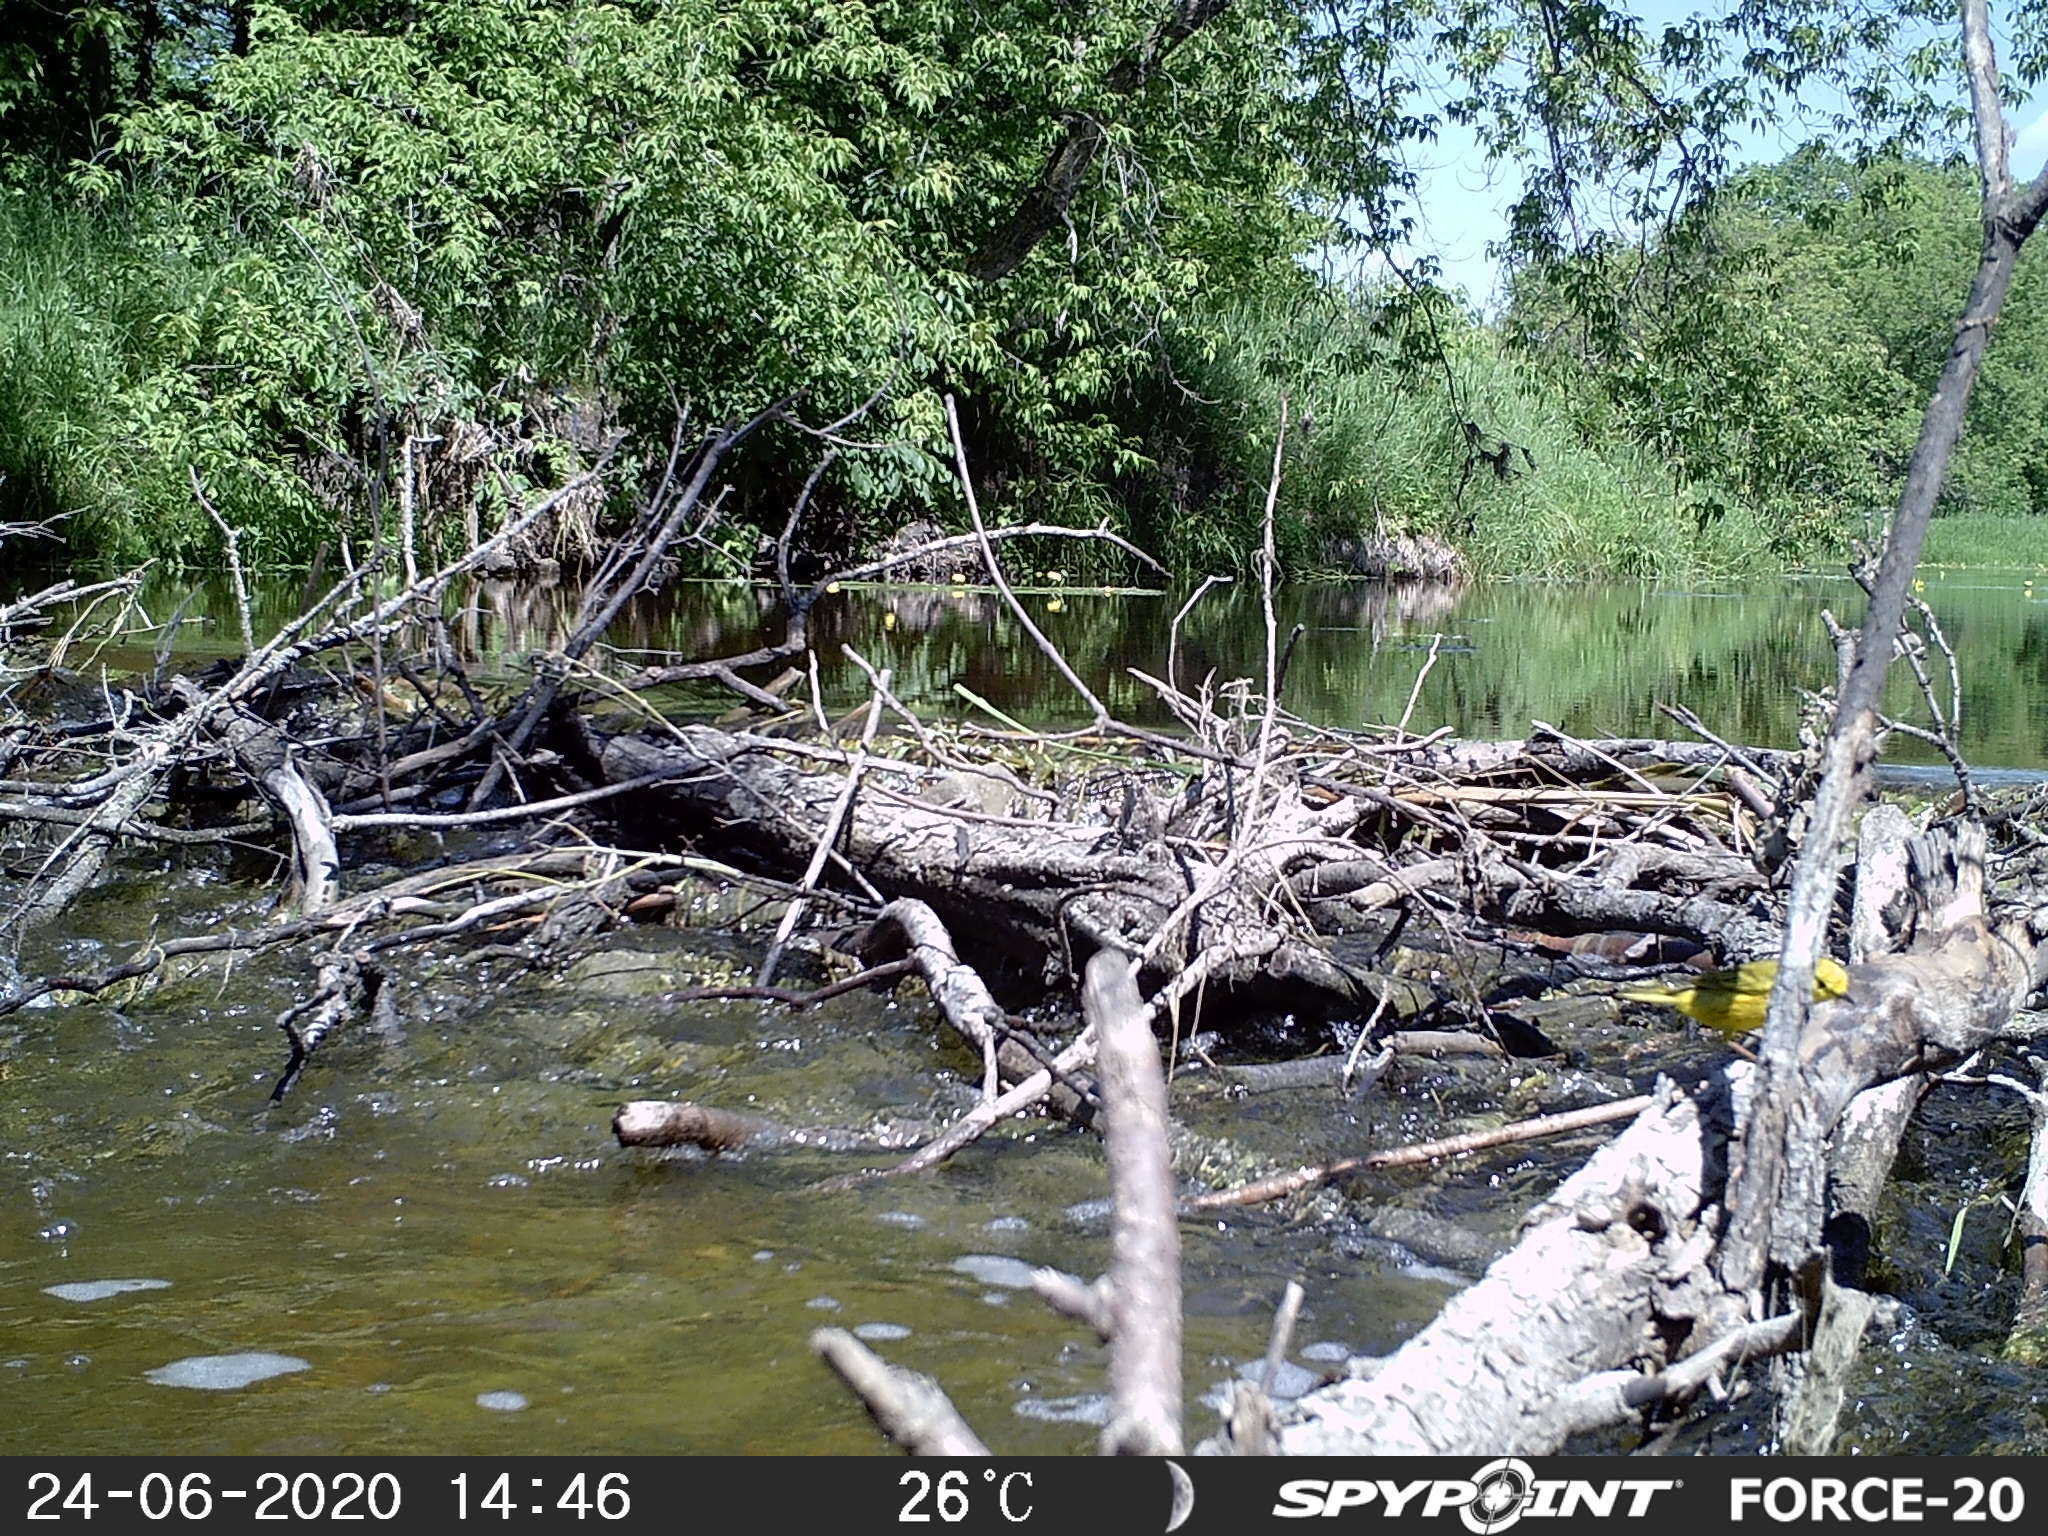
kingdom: Animalia
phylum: Chordata
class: Aves
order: Passeriformes
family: Parulidae
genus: Setophaga
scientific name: Setophaga petechia
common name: Yellow warbler
